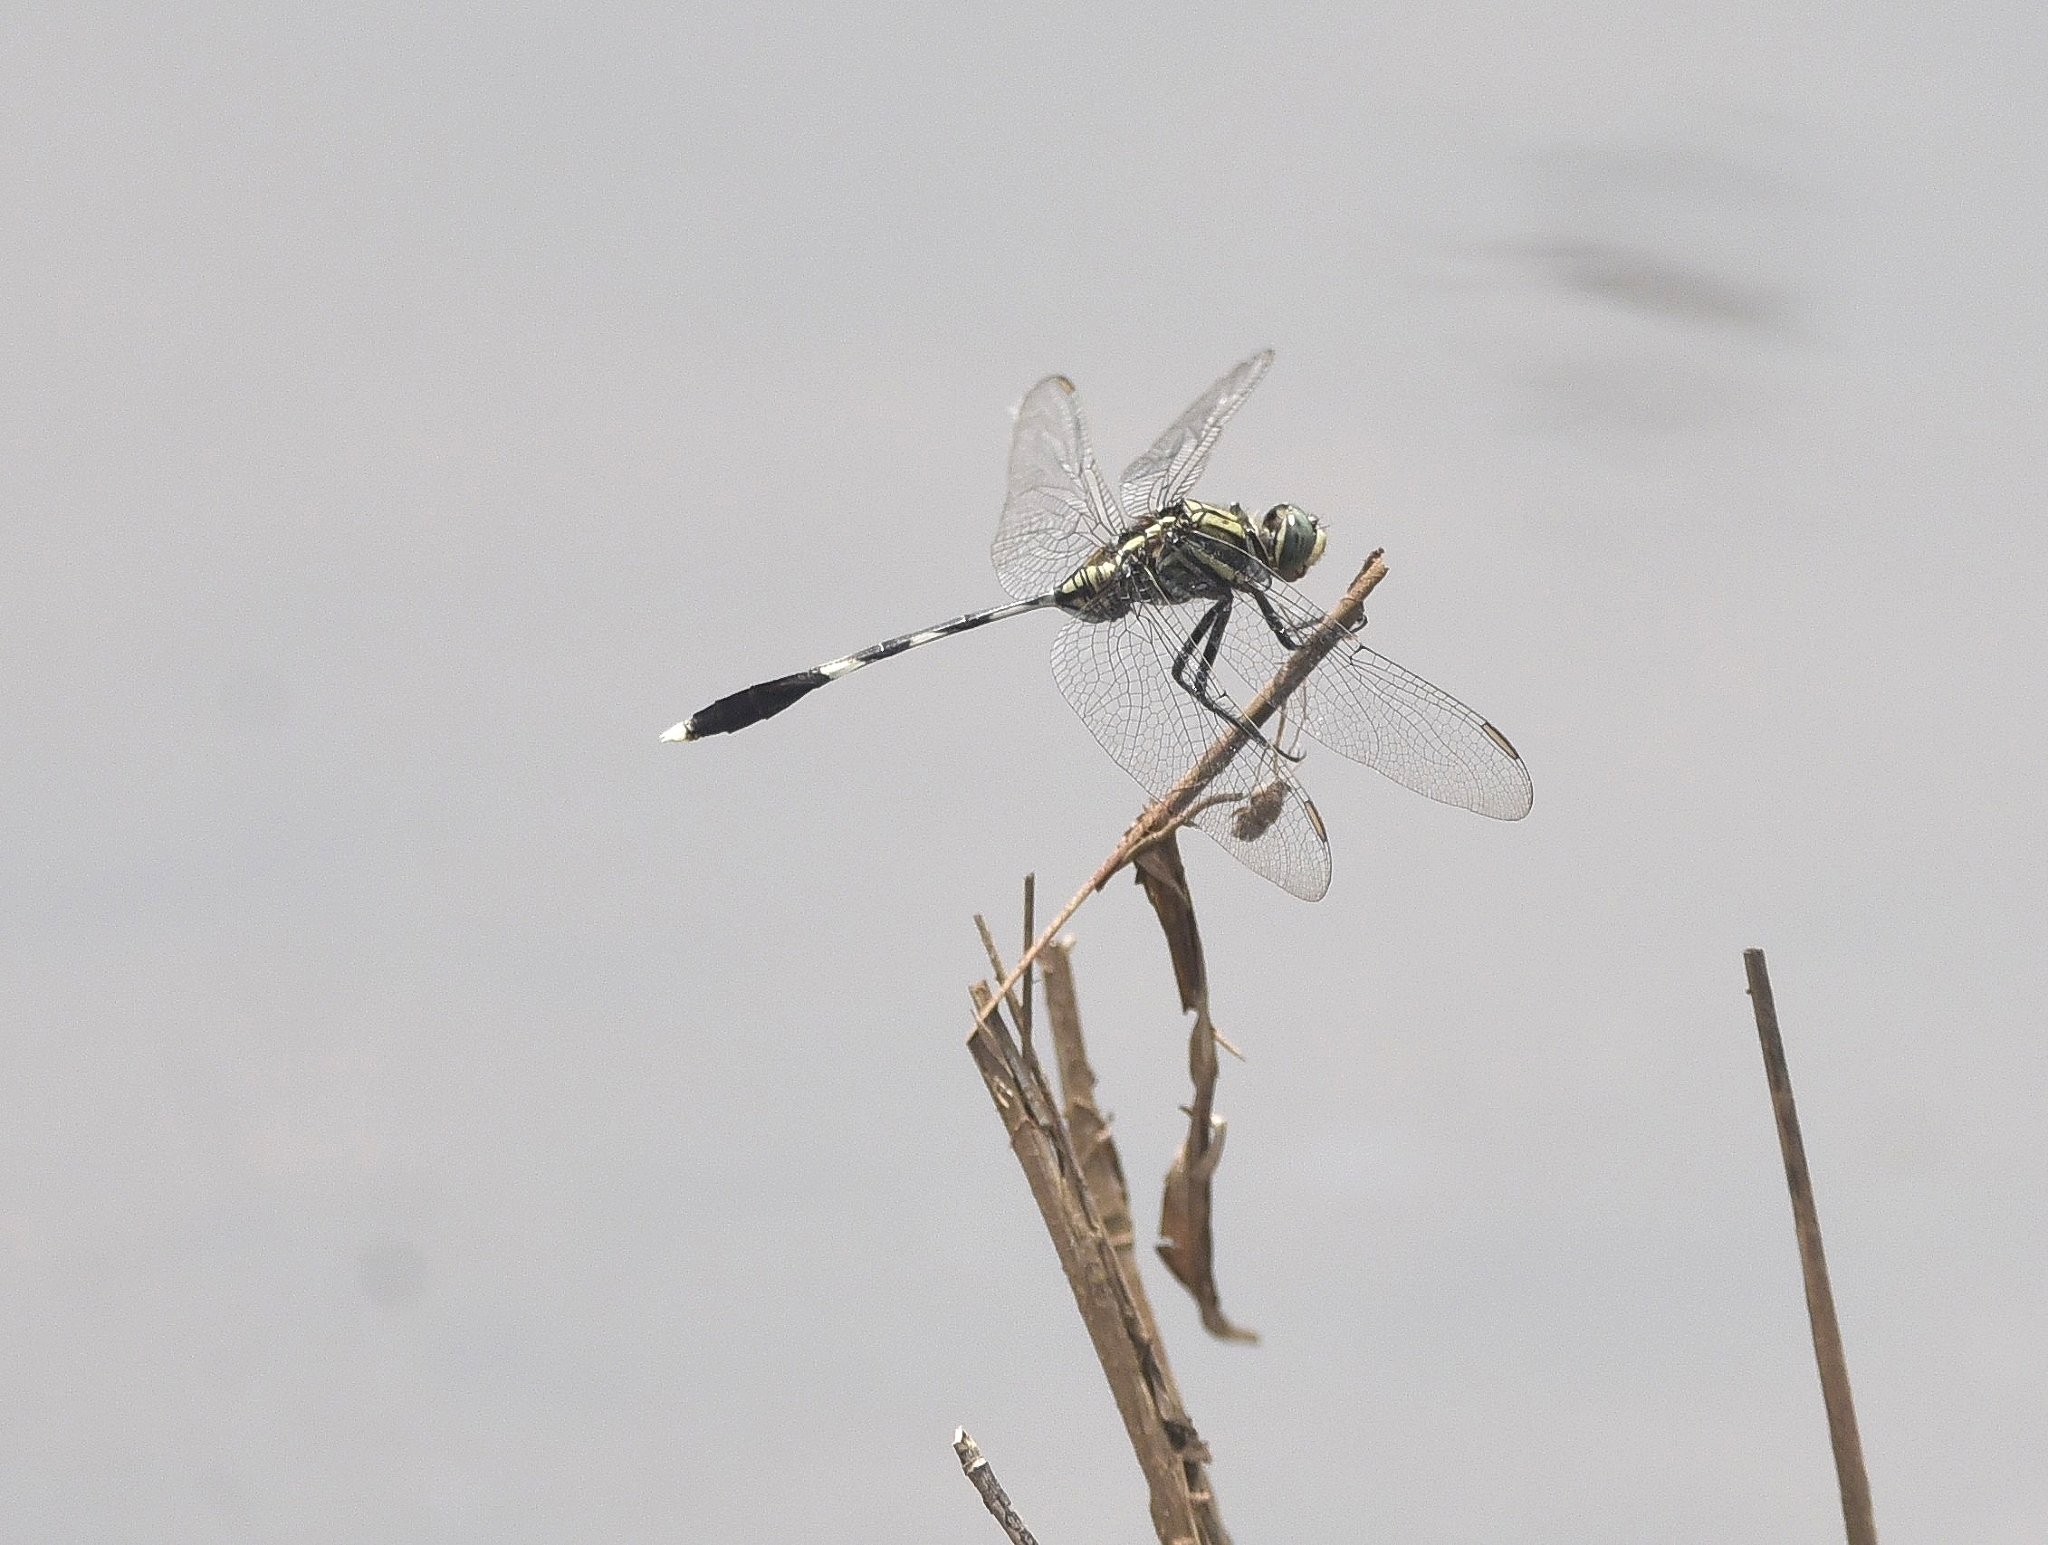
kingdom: Animalia
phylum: Arthropoda
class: Insecta
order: Odonata
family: Libellulidae
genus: Orthetrum
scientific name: Orthetrum sabina
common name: Slender skimmer
